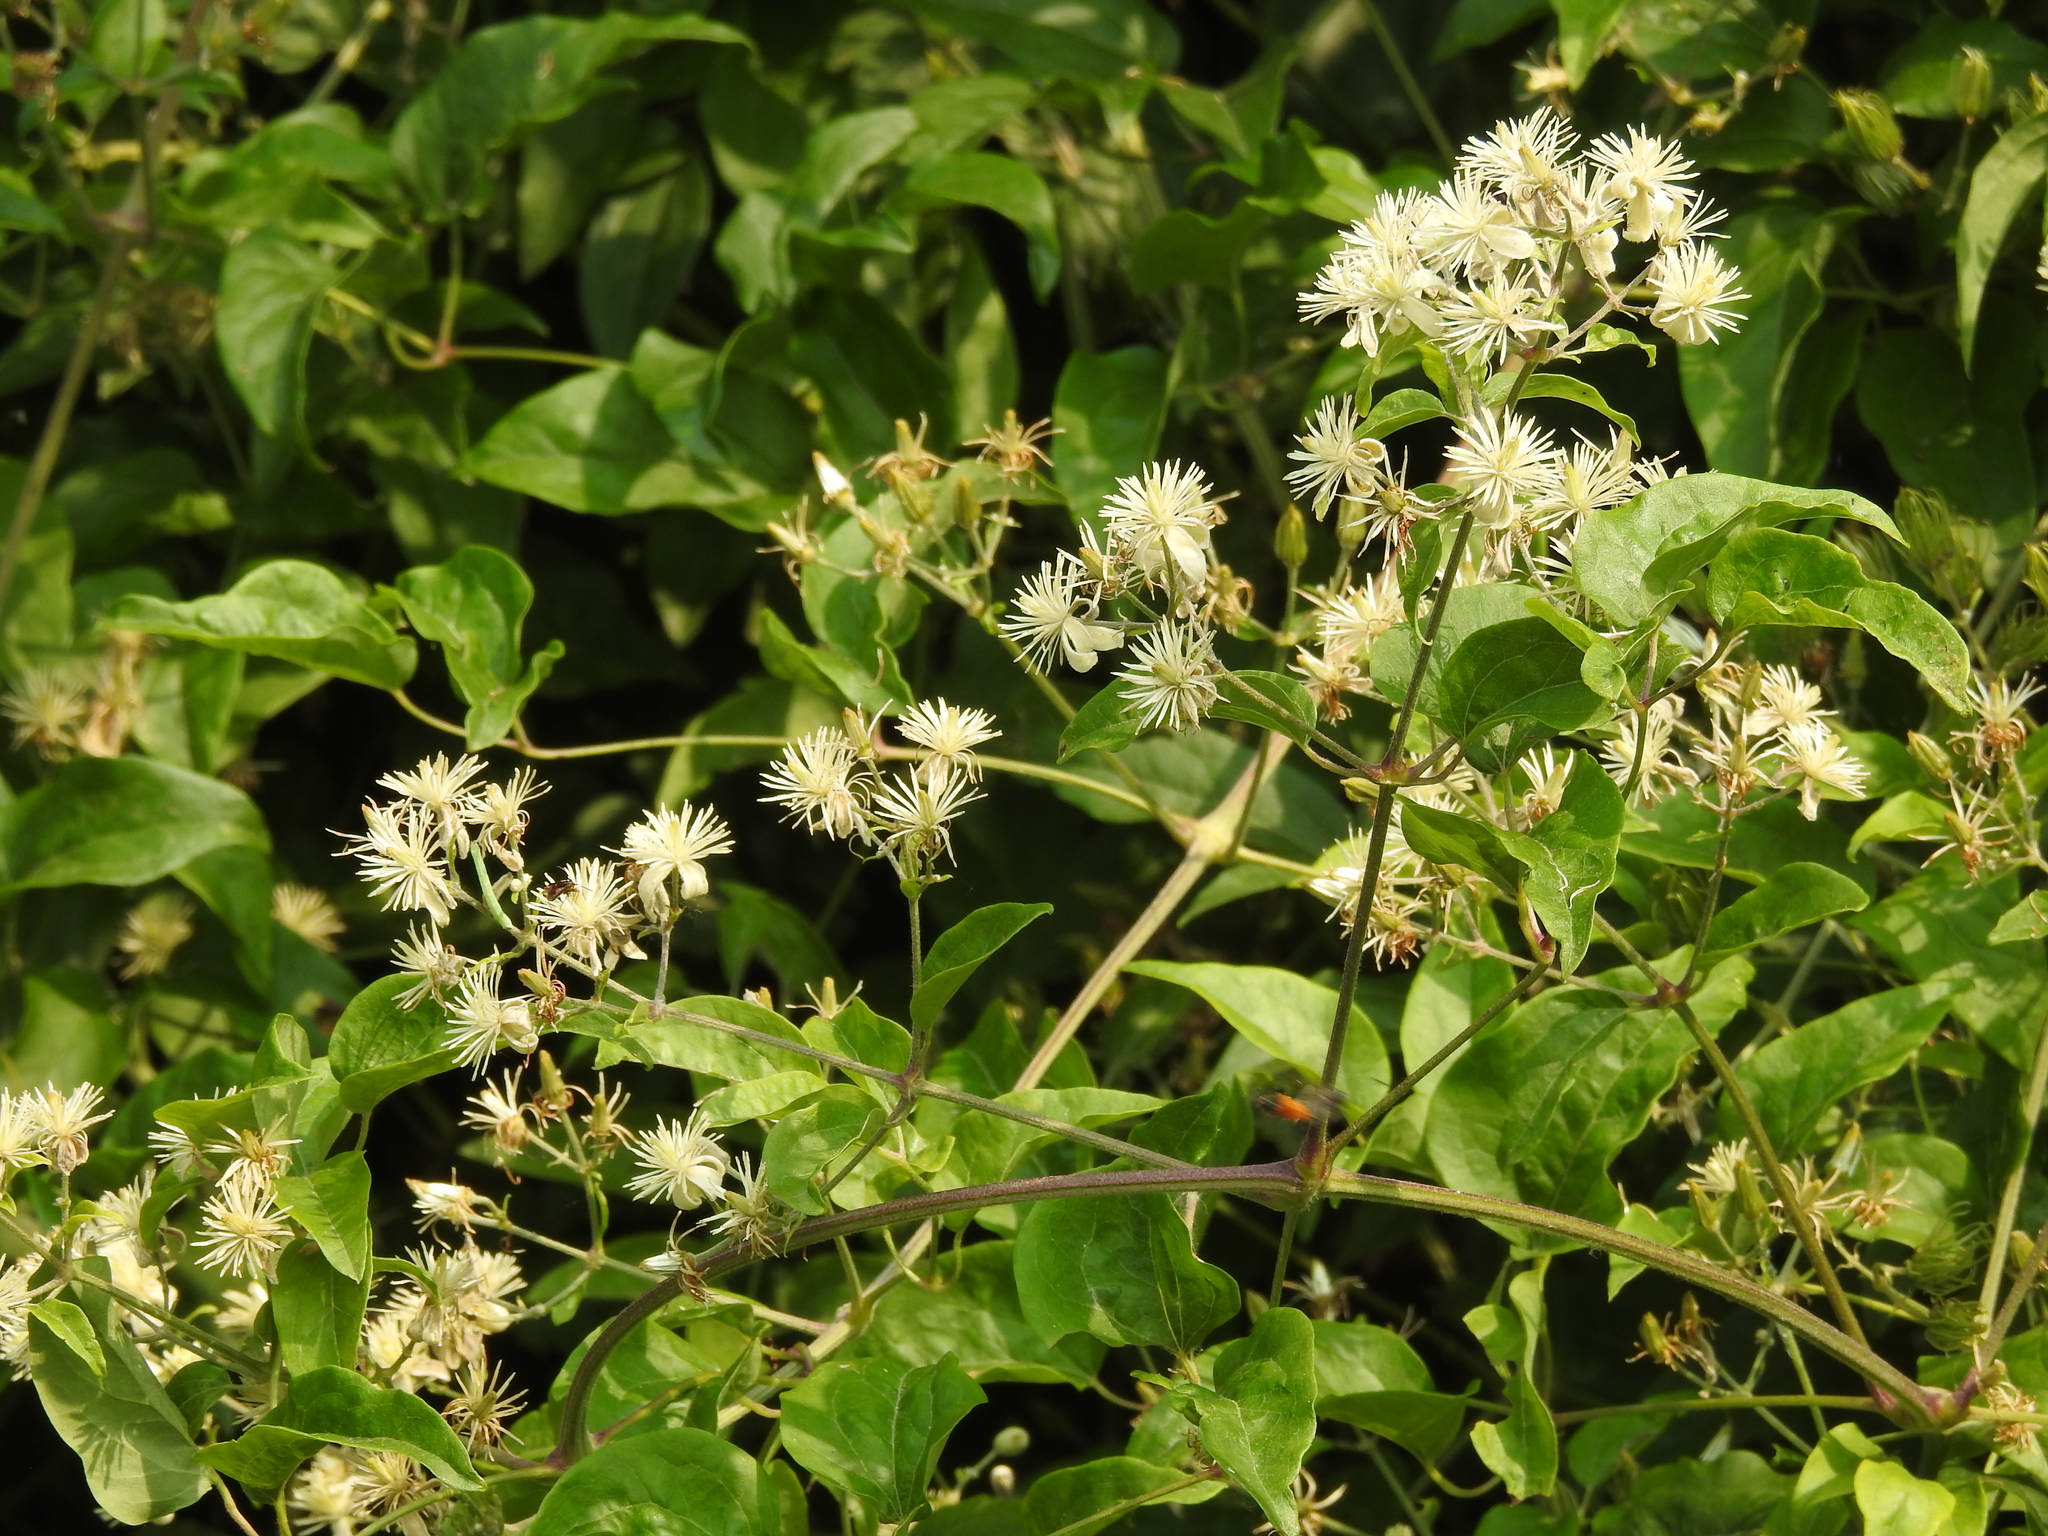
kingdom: Plantae
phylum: Tracheophyta
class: Magnoliopsida
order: Ranunculales
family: Ranunculaceae
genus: Clematis
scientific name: Clematis vitalba
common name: Evergreen clematis
